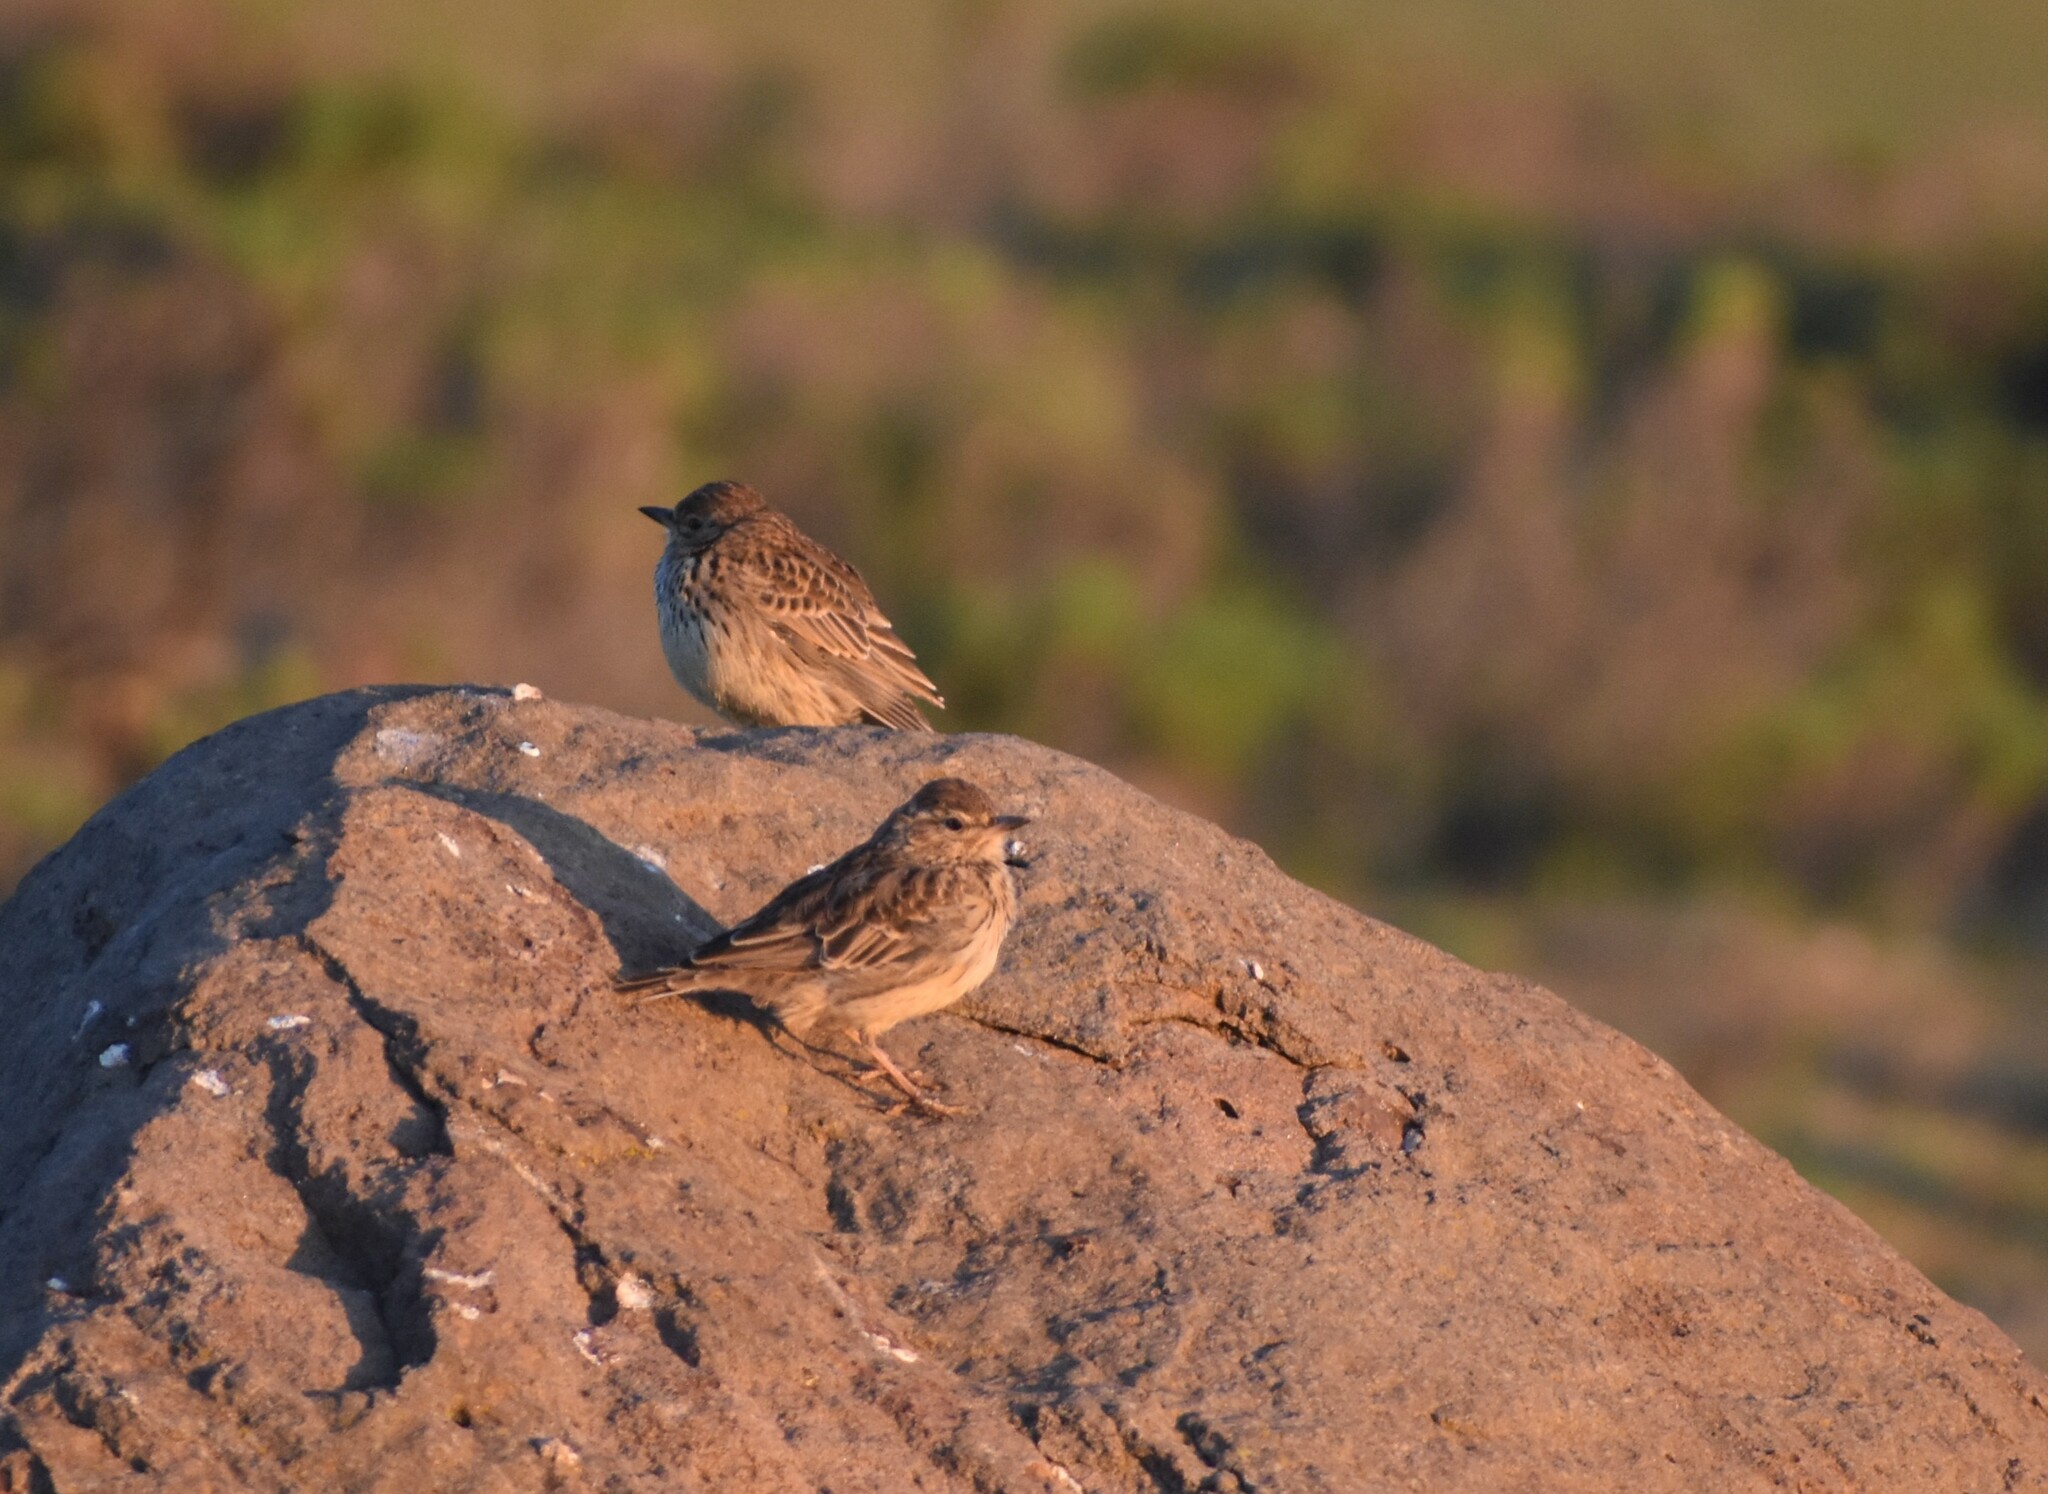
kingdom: Animalia
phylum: Chordata
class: Aves
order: Passeriformes
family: Alaudidae
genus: Galerida
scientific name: Galerida magnirostris
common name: Large-billed lark
